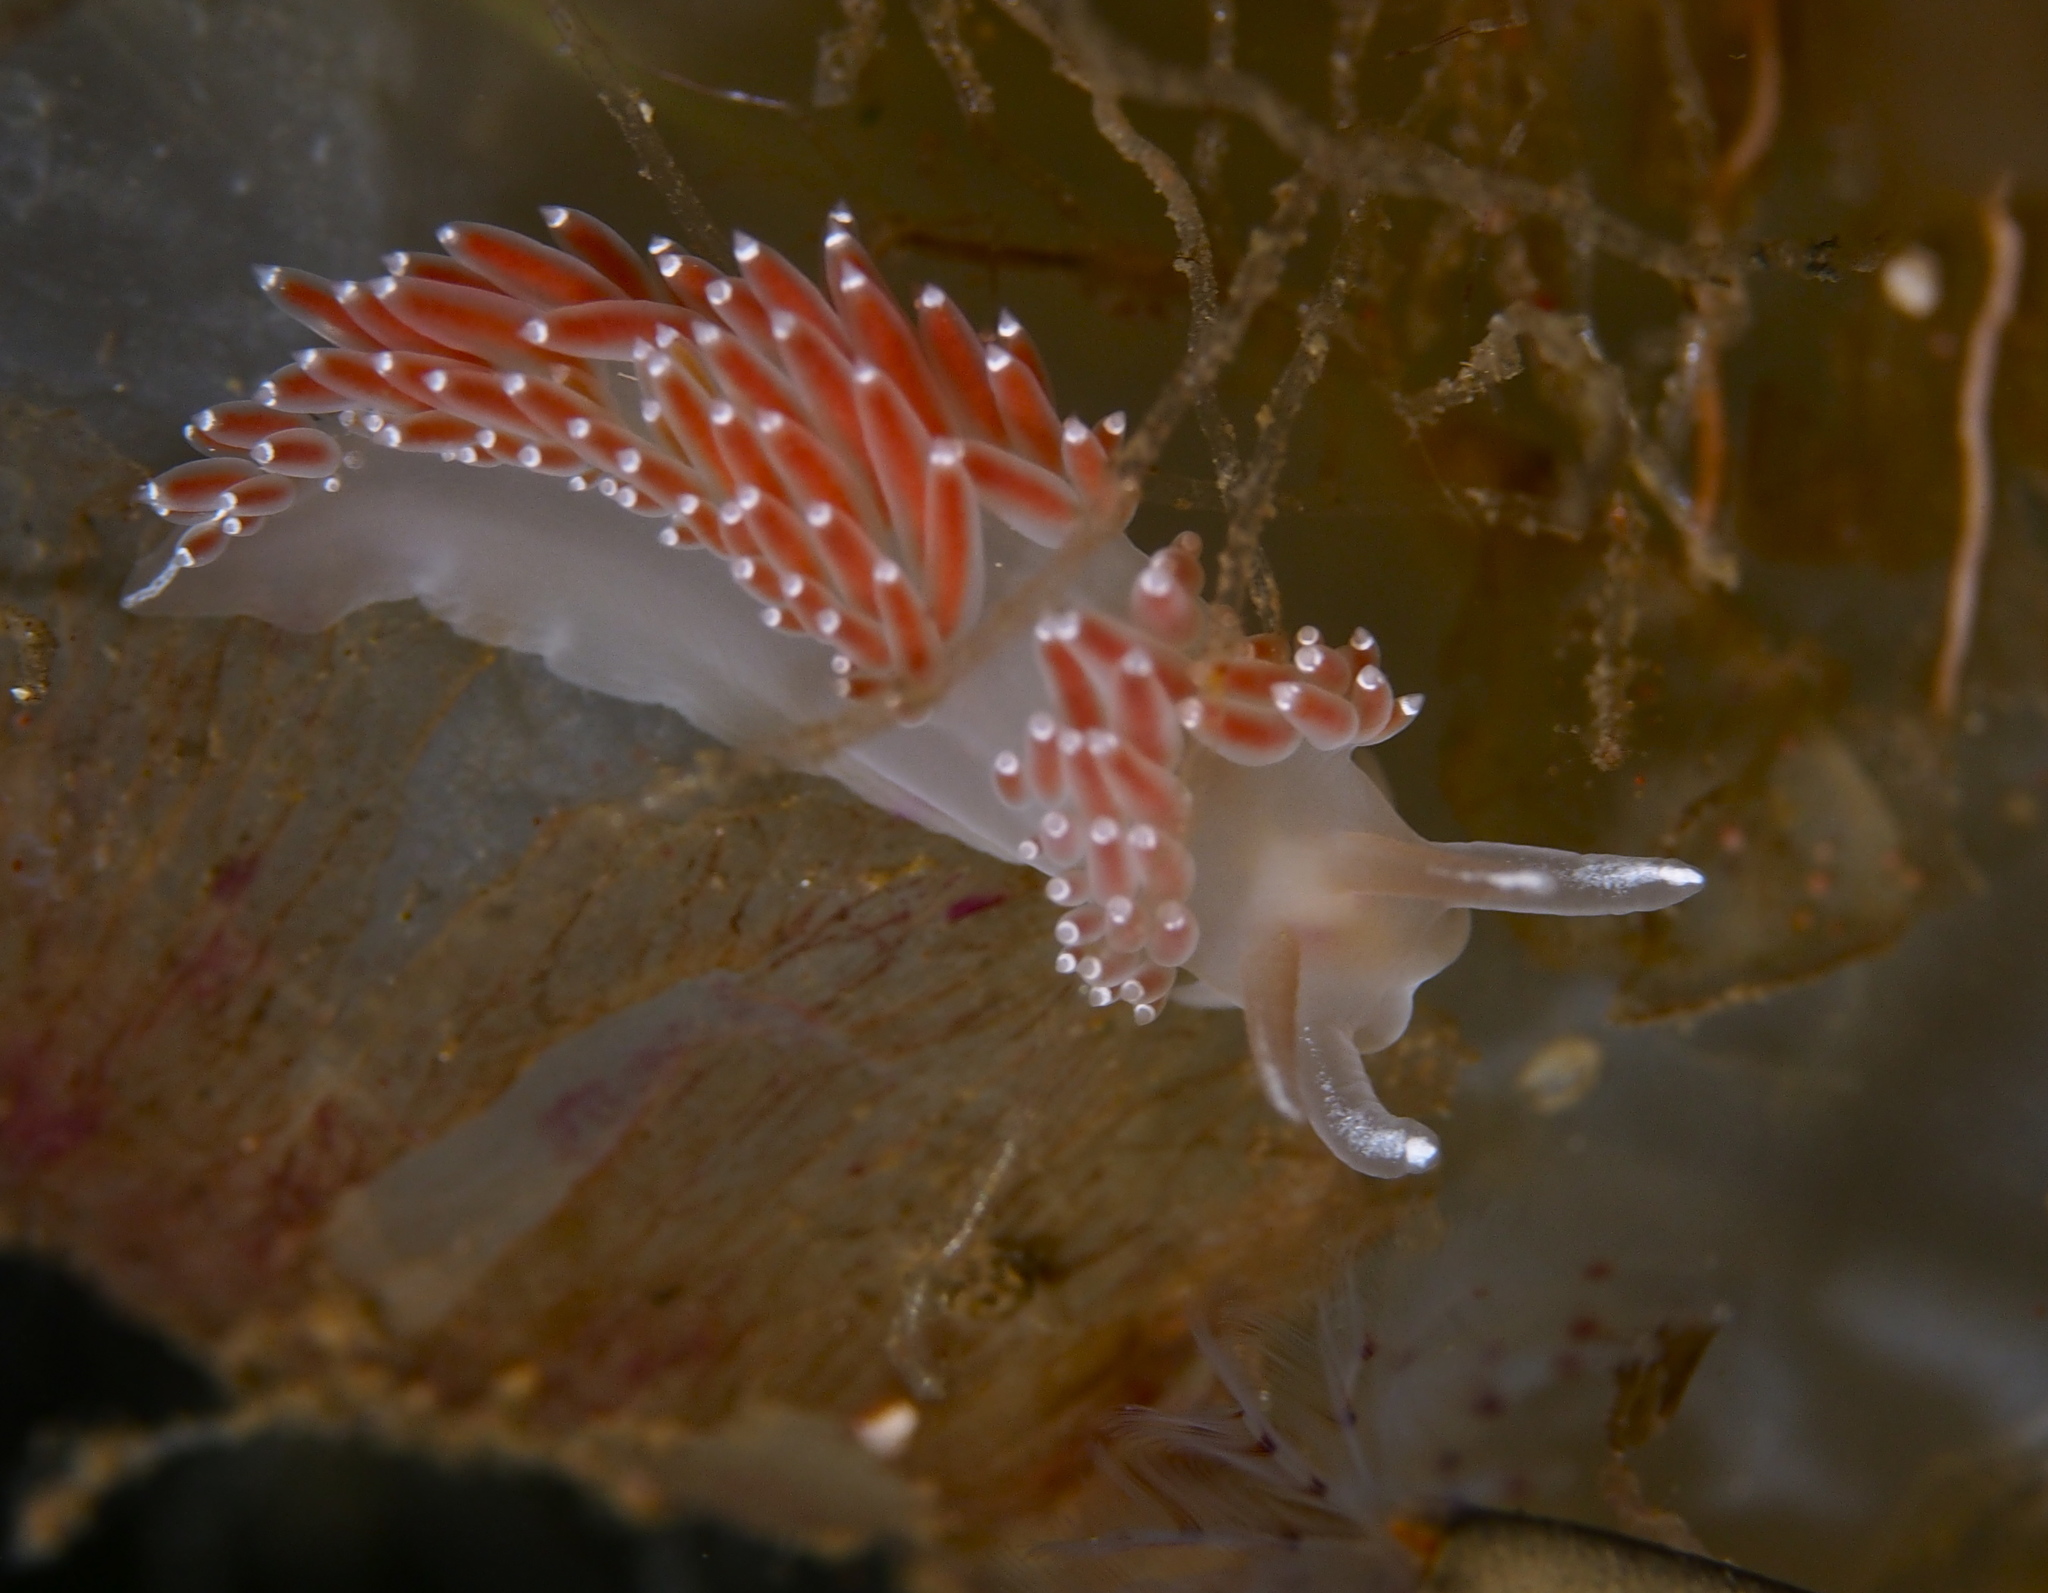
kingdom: Animalia
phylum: Mollusca
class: Gastropoda
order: Nudibranchia
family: Coryphellidae
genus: Coryphella
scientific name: Coryphella verrucosa
